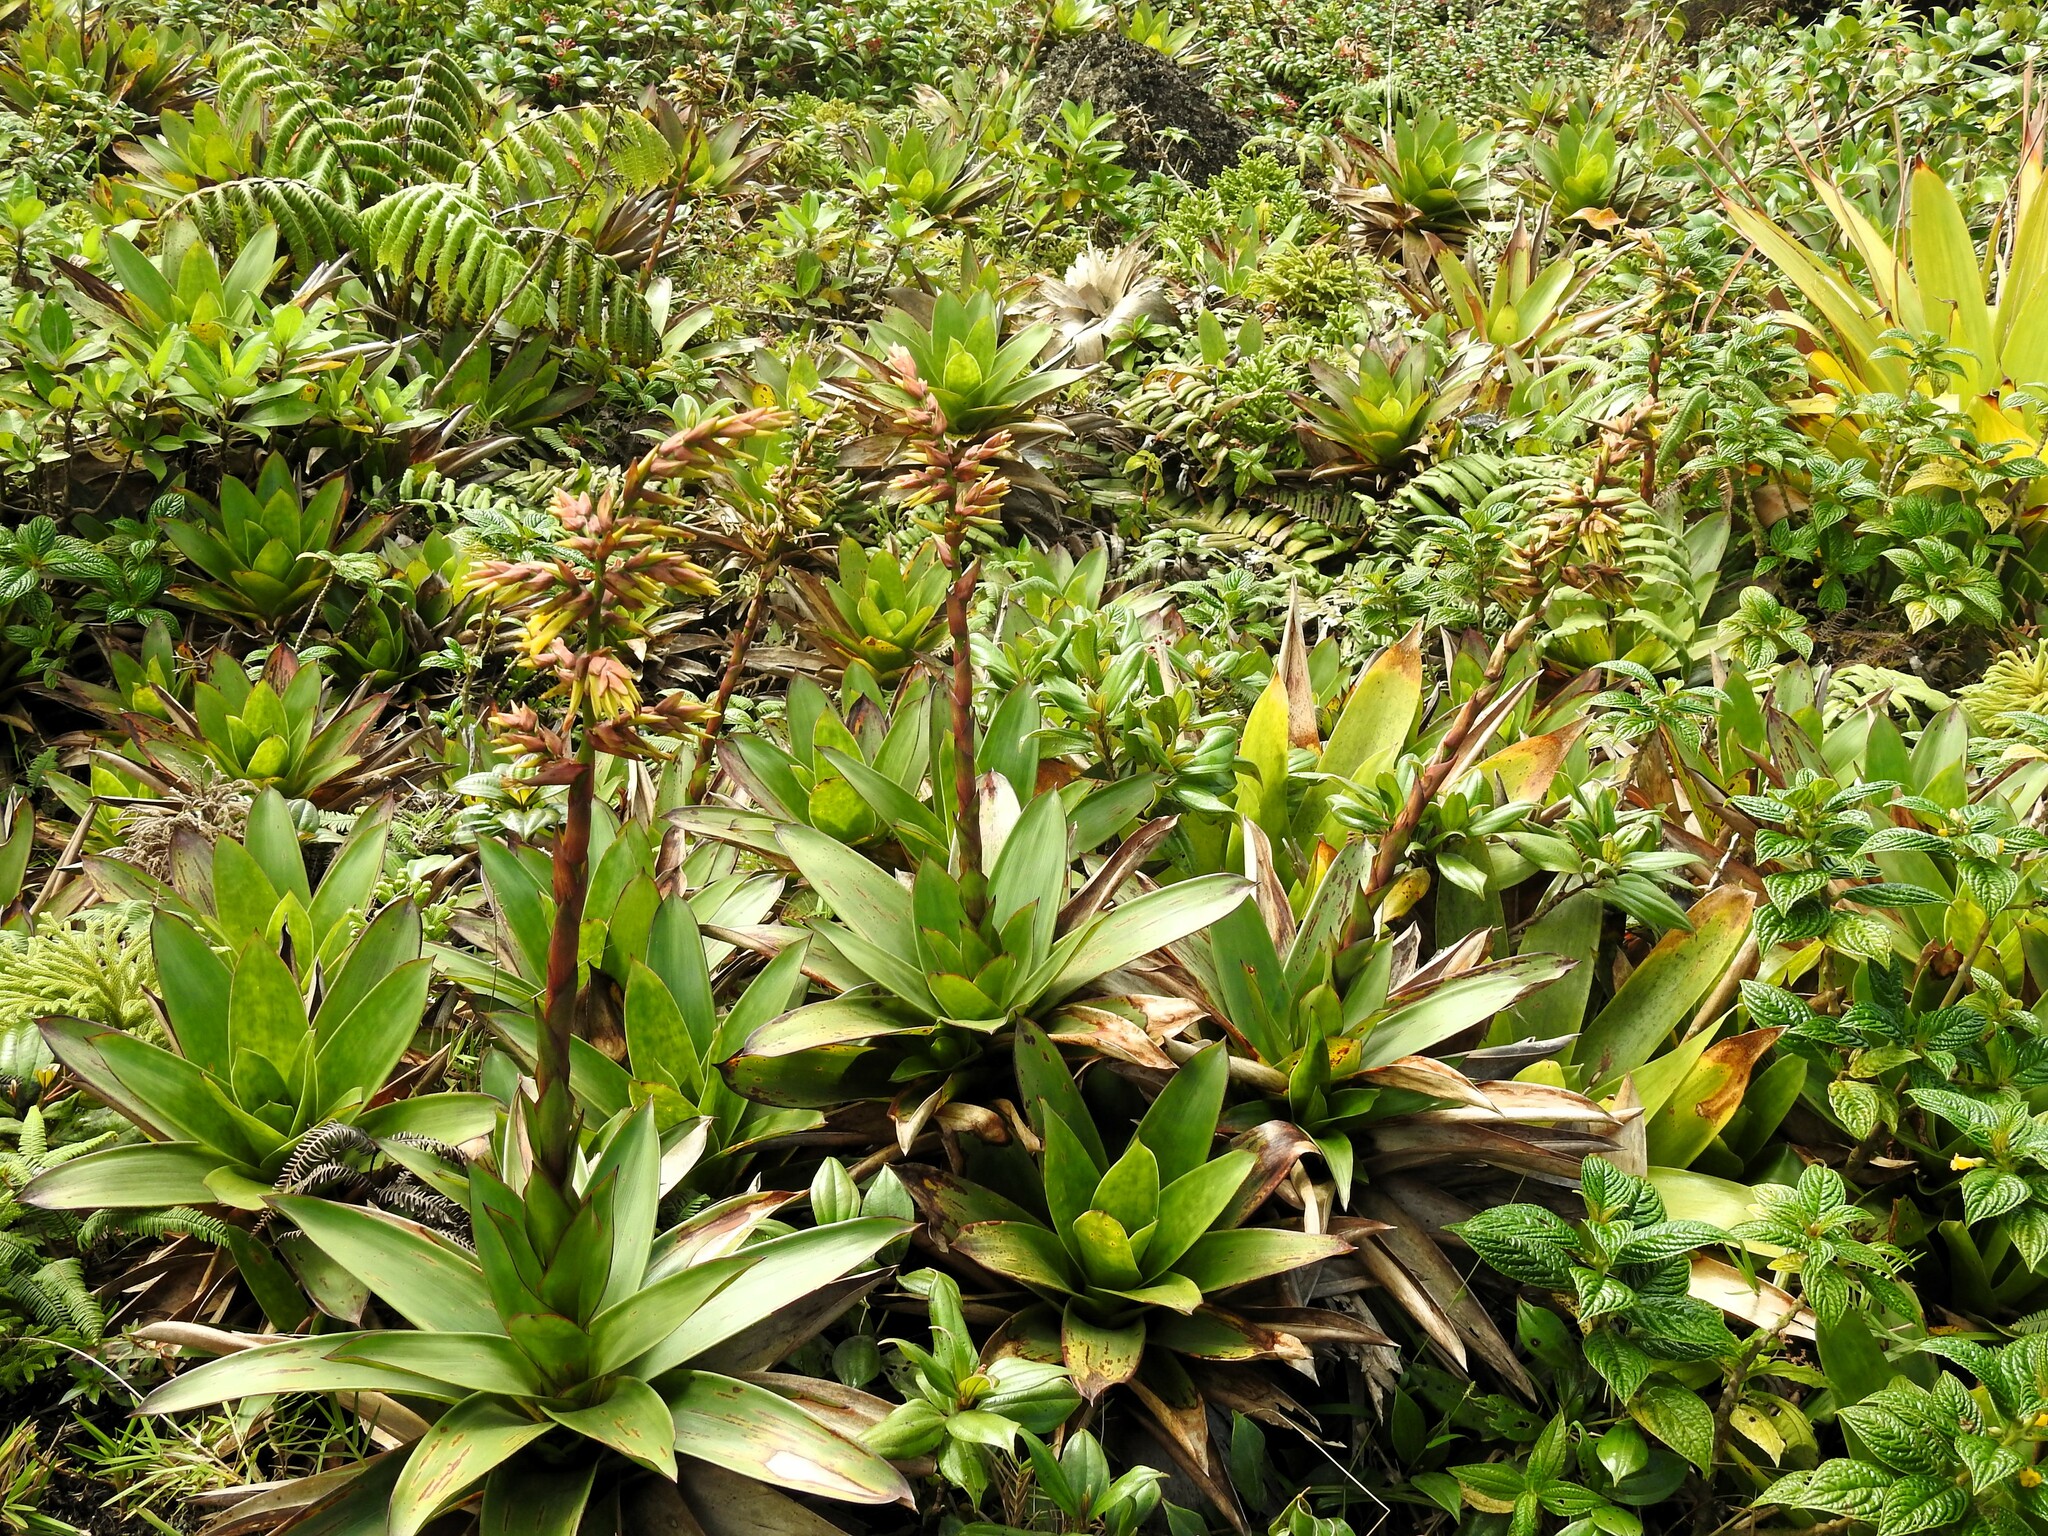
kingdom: Plantae
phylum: Tracheophyta
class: Liliopsida
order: Poales
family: Bromeliaceae
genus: Guzmania
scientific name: Guzmania plumieri
